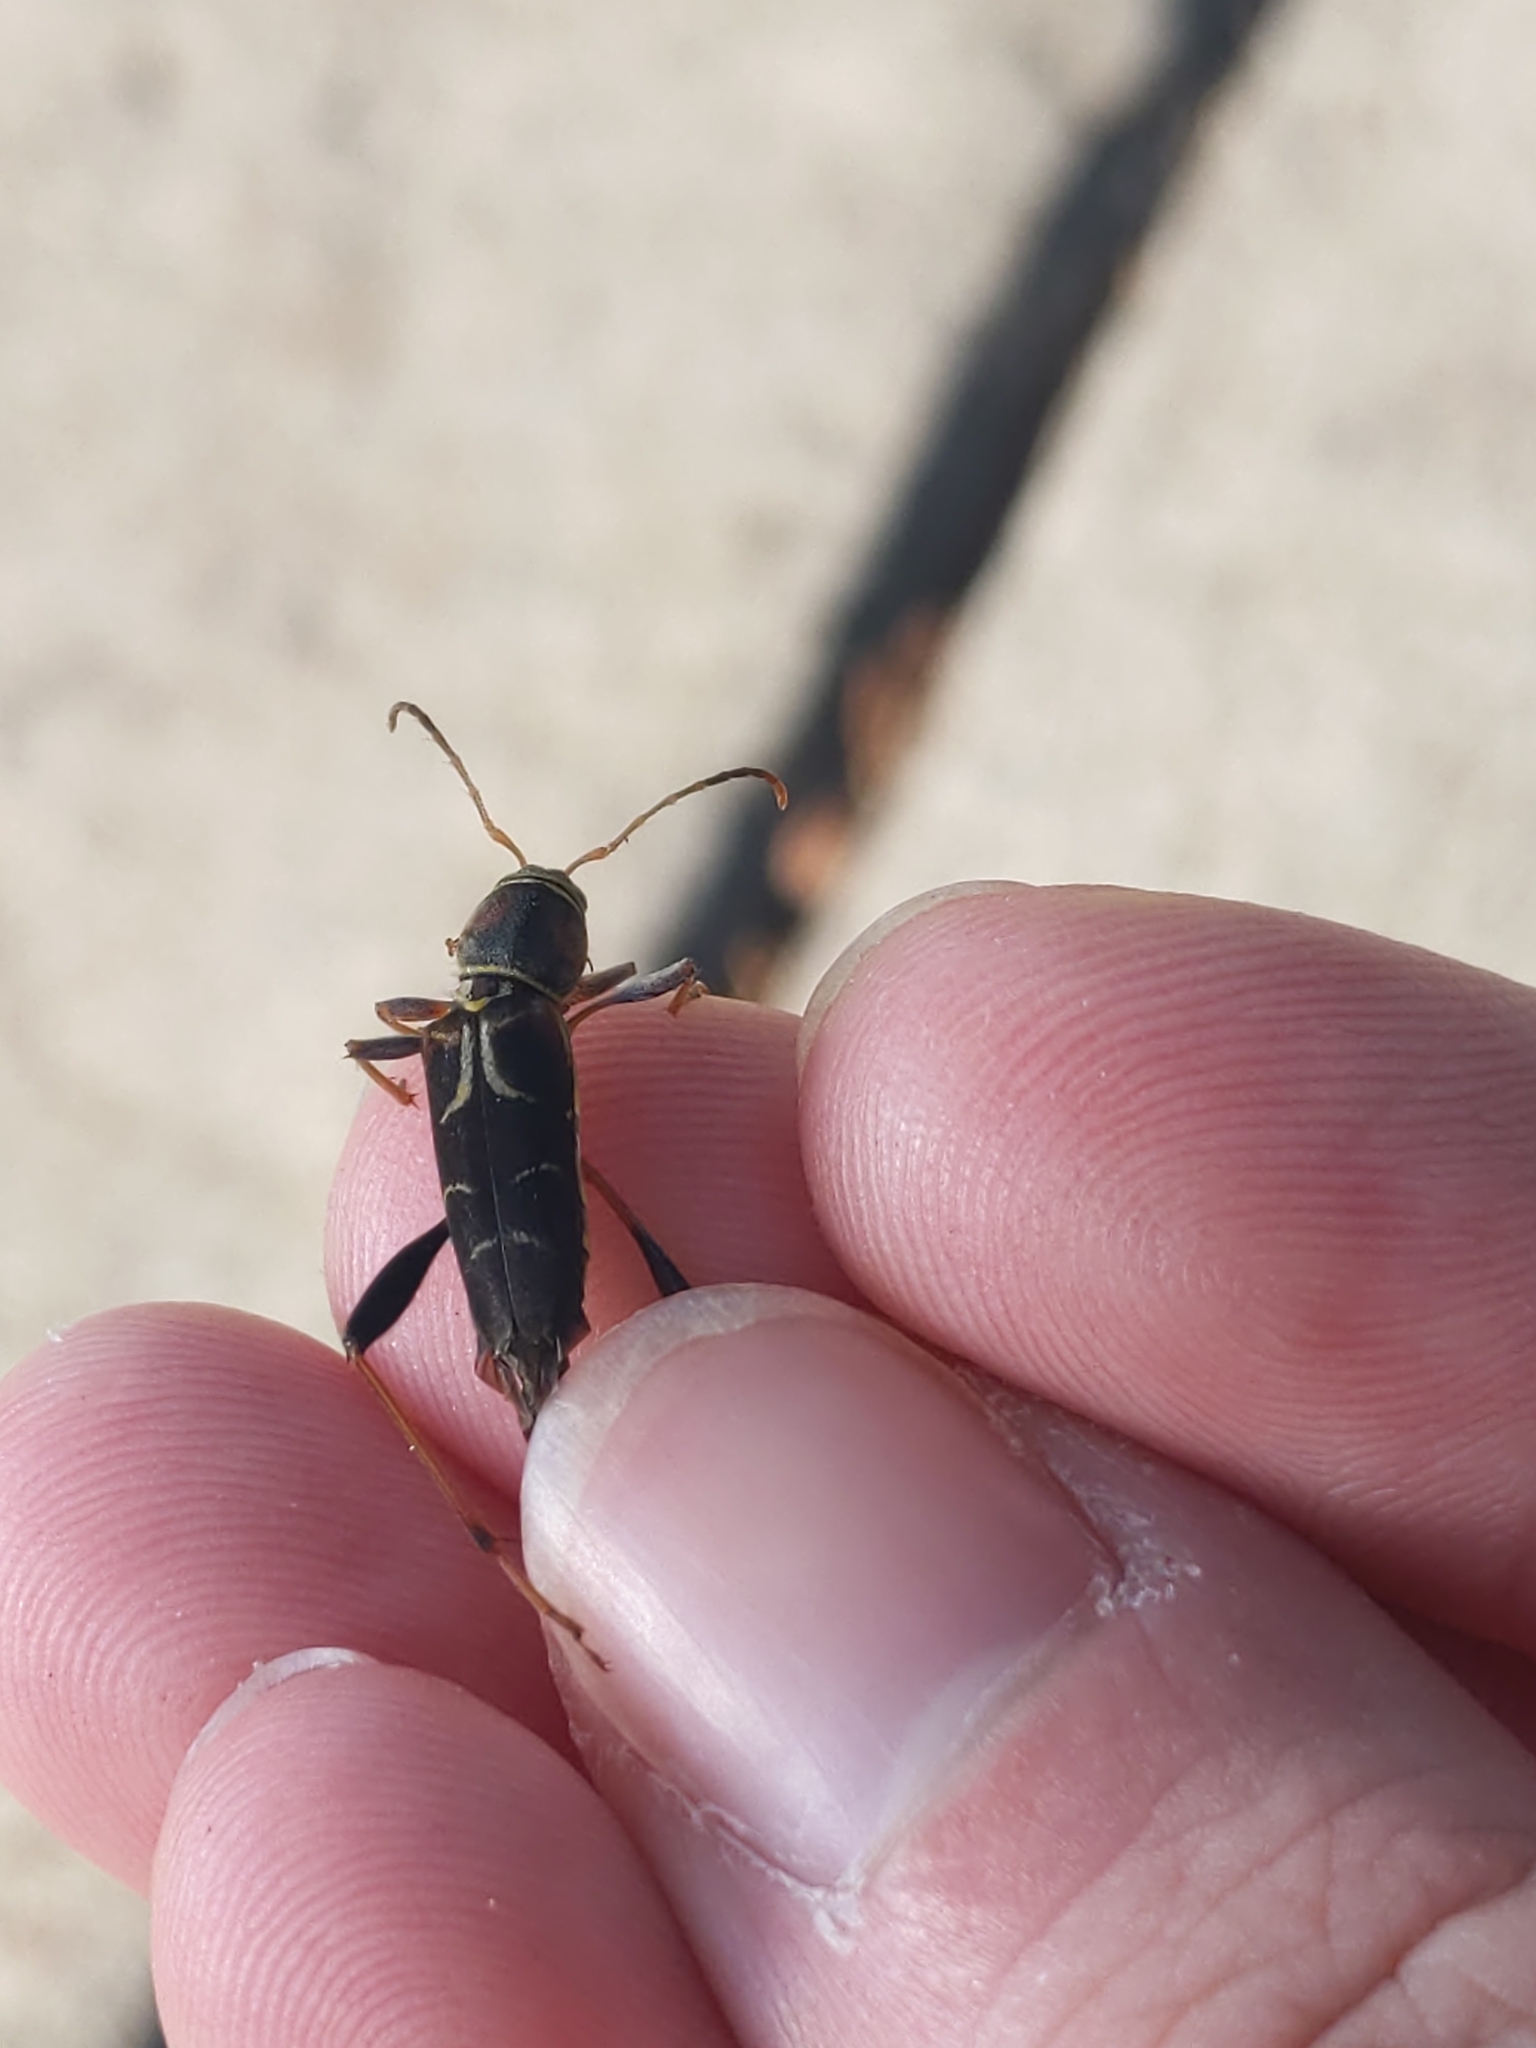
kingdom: Animalia
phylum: Arthropoda
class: Insecta
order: Coleoptera
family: Cerambycidae
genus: Neoclytus
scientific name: Neoclytus mucronatus
